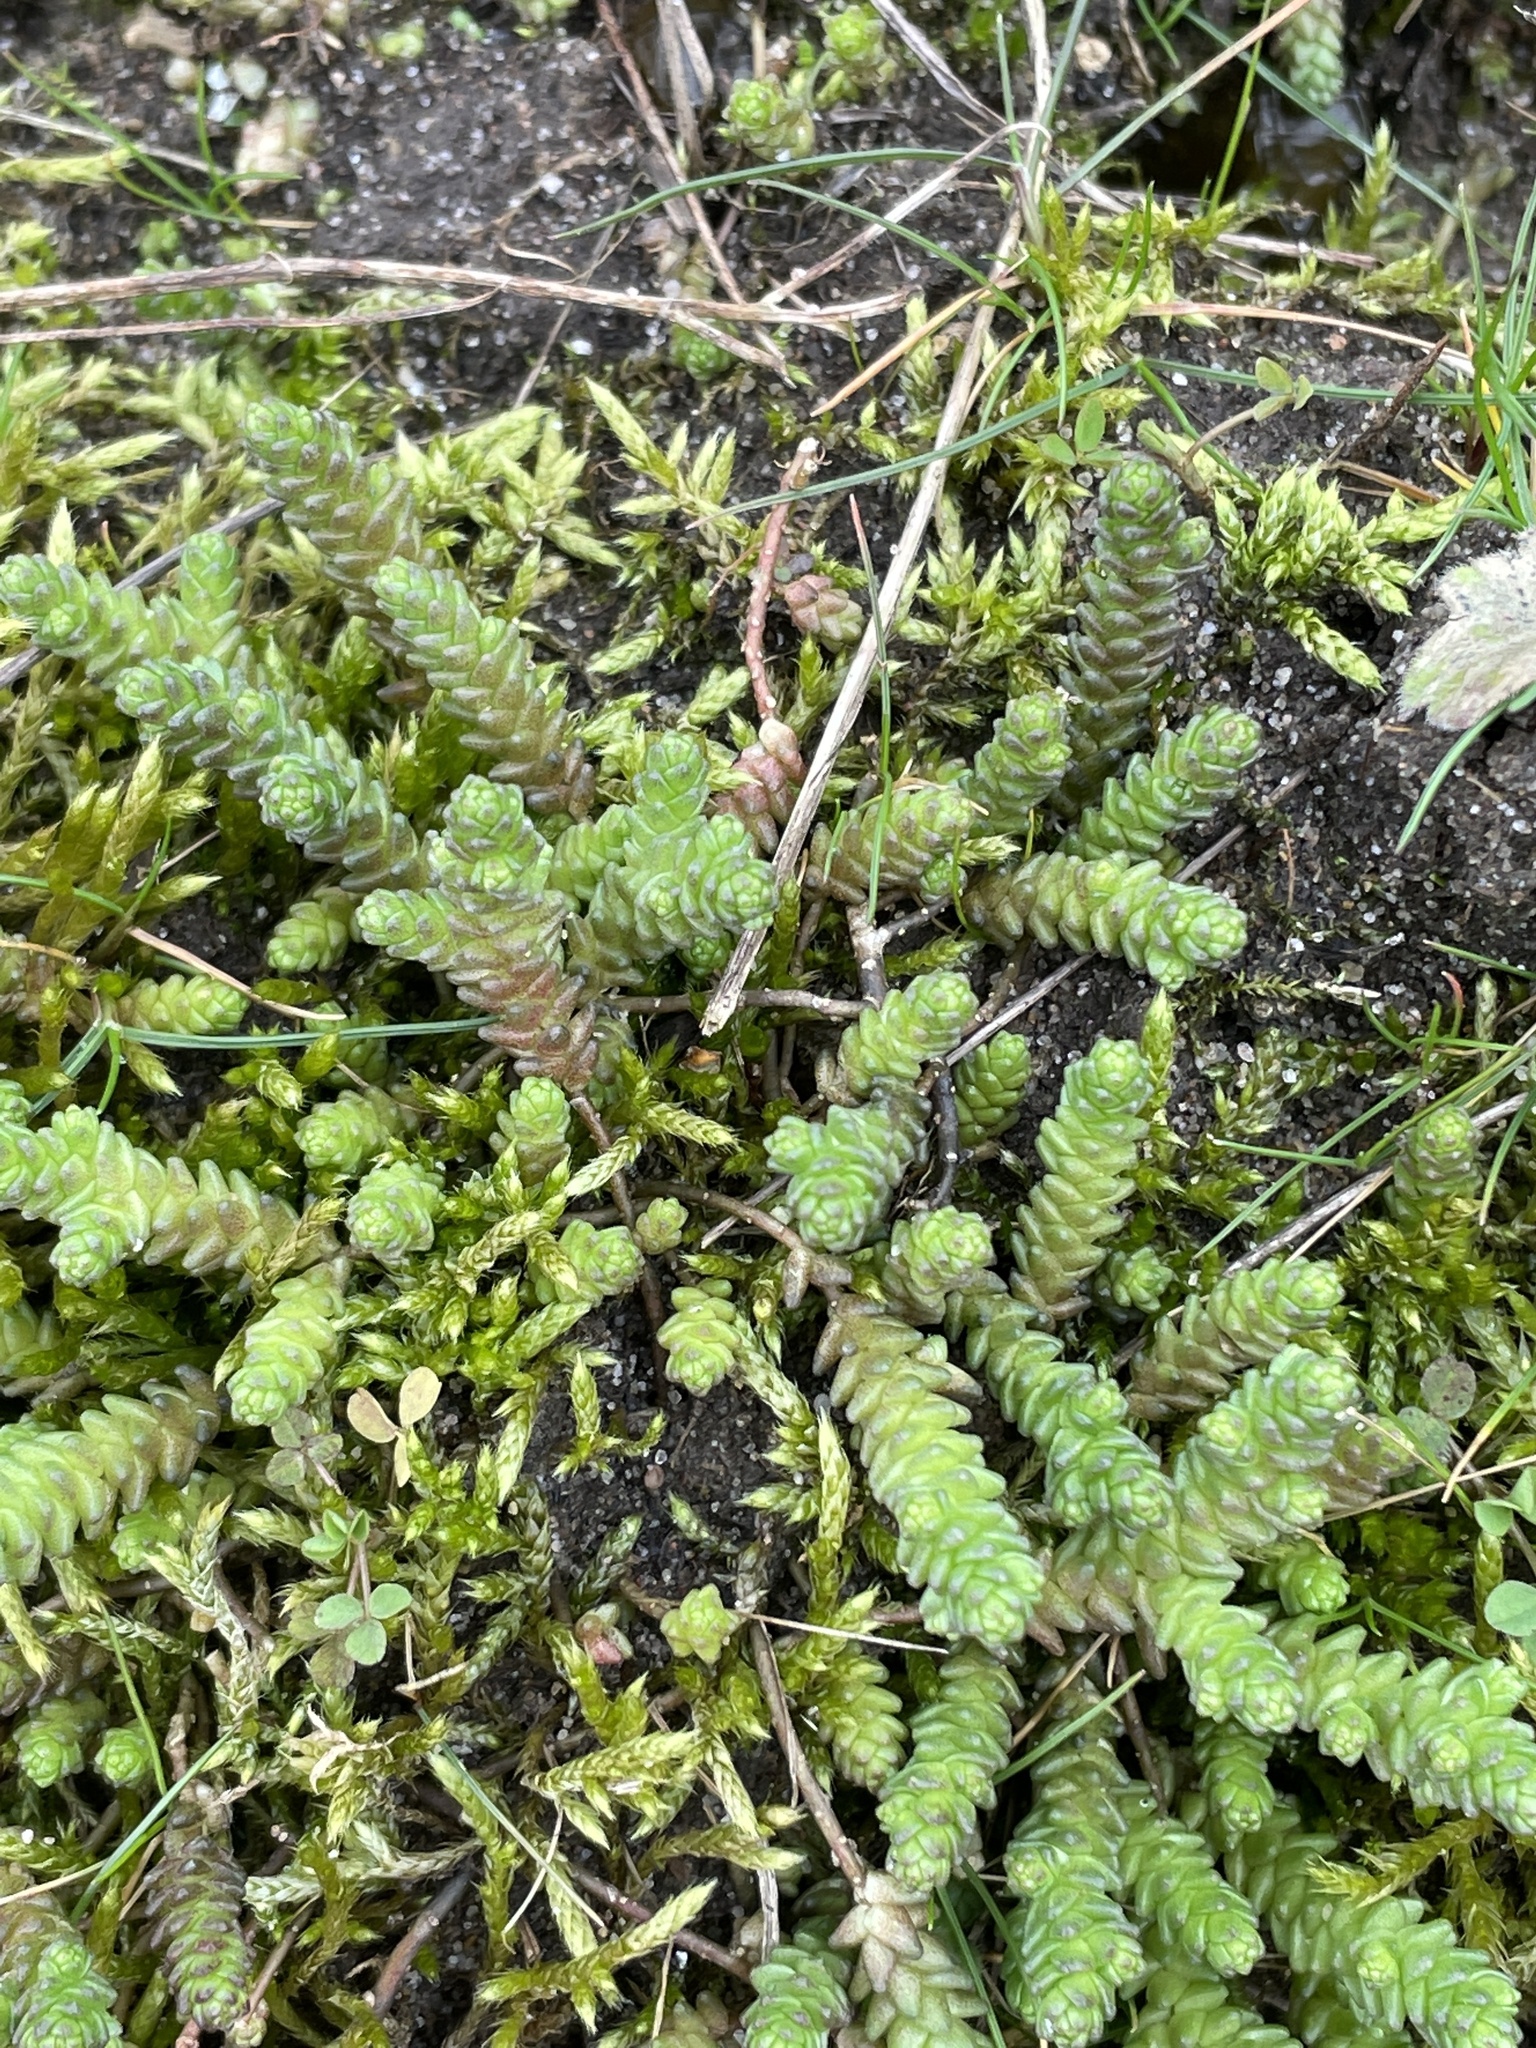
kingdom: Plantae
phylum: Tracheophyta
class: Magnoliopsida
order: Saxifragales
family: Crassulaceae
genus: Sedum
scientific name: Sedum acre
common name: Biting stonecrop
